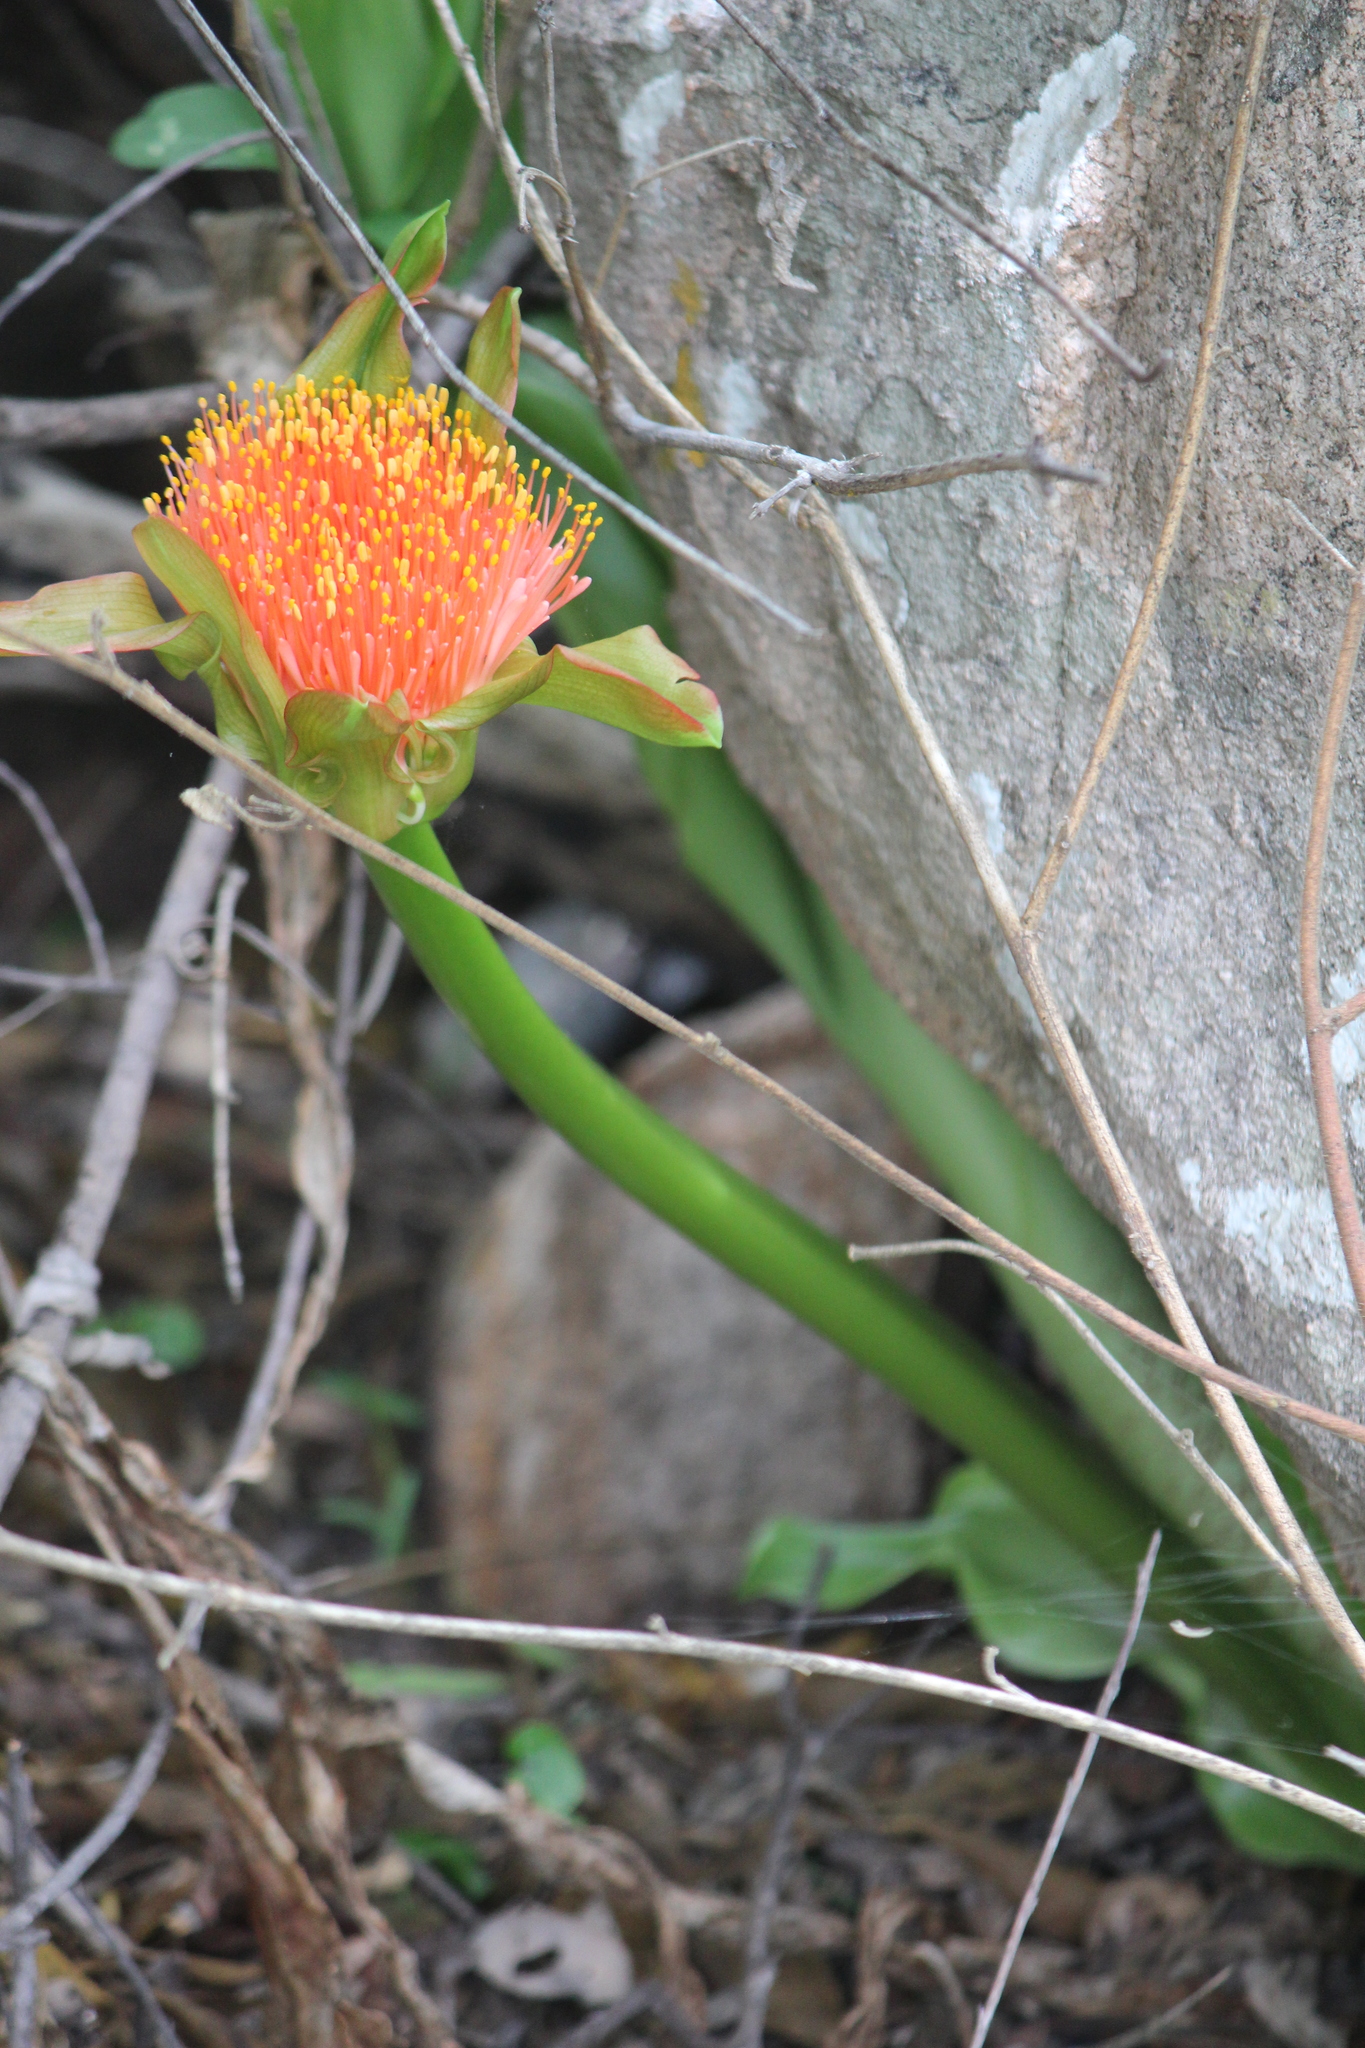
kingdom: Plantae
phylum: Tracheophyta
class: Liliopsida
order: Asparagales
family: Amaryllidaceae
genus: Scadoxus
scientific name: Scadoxus puniceus
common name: Royal-paintbrush
